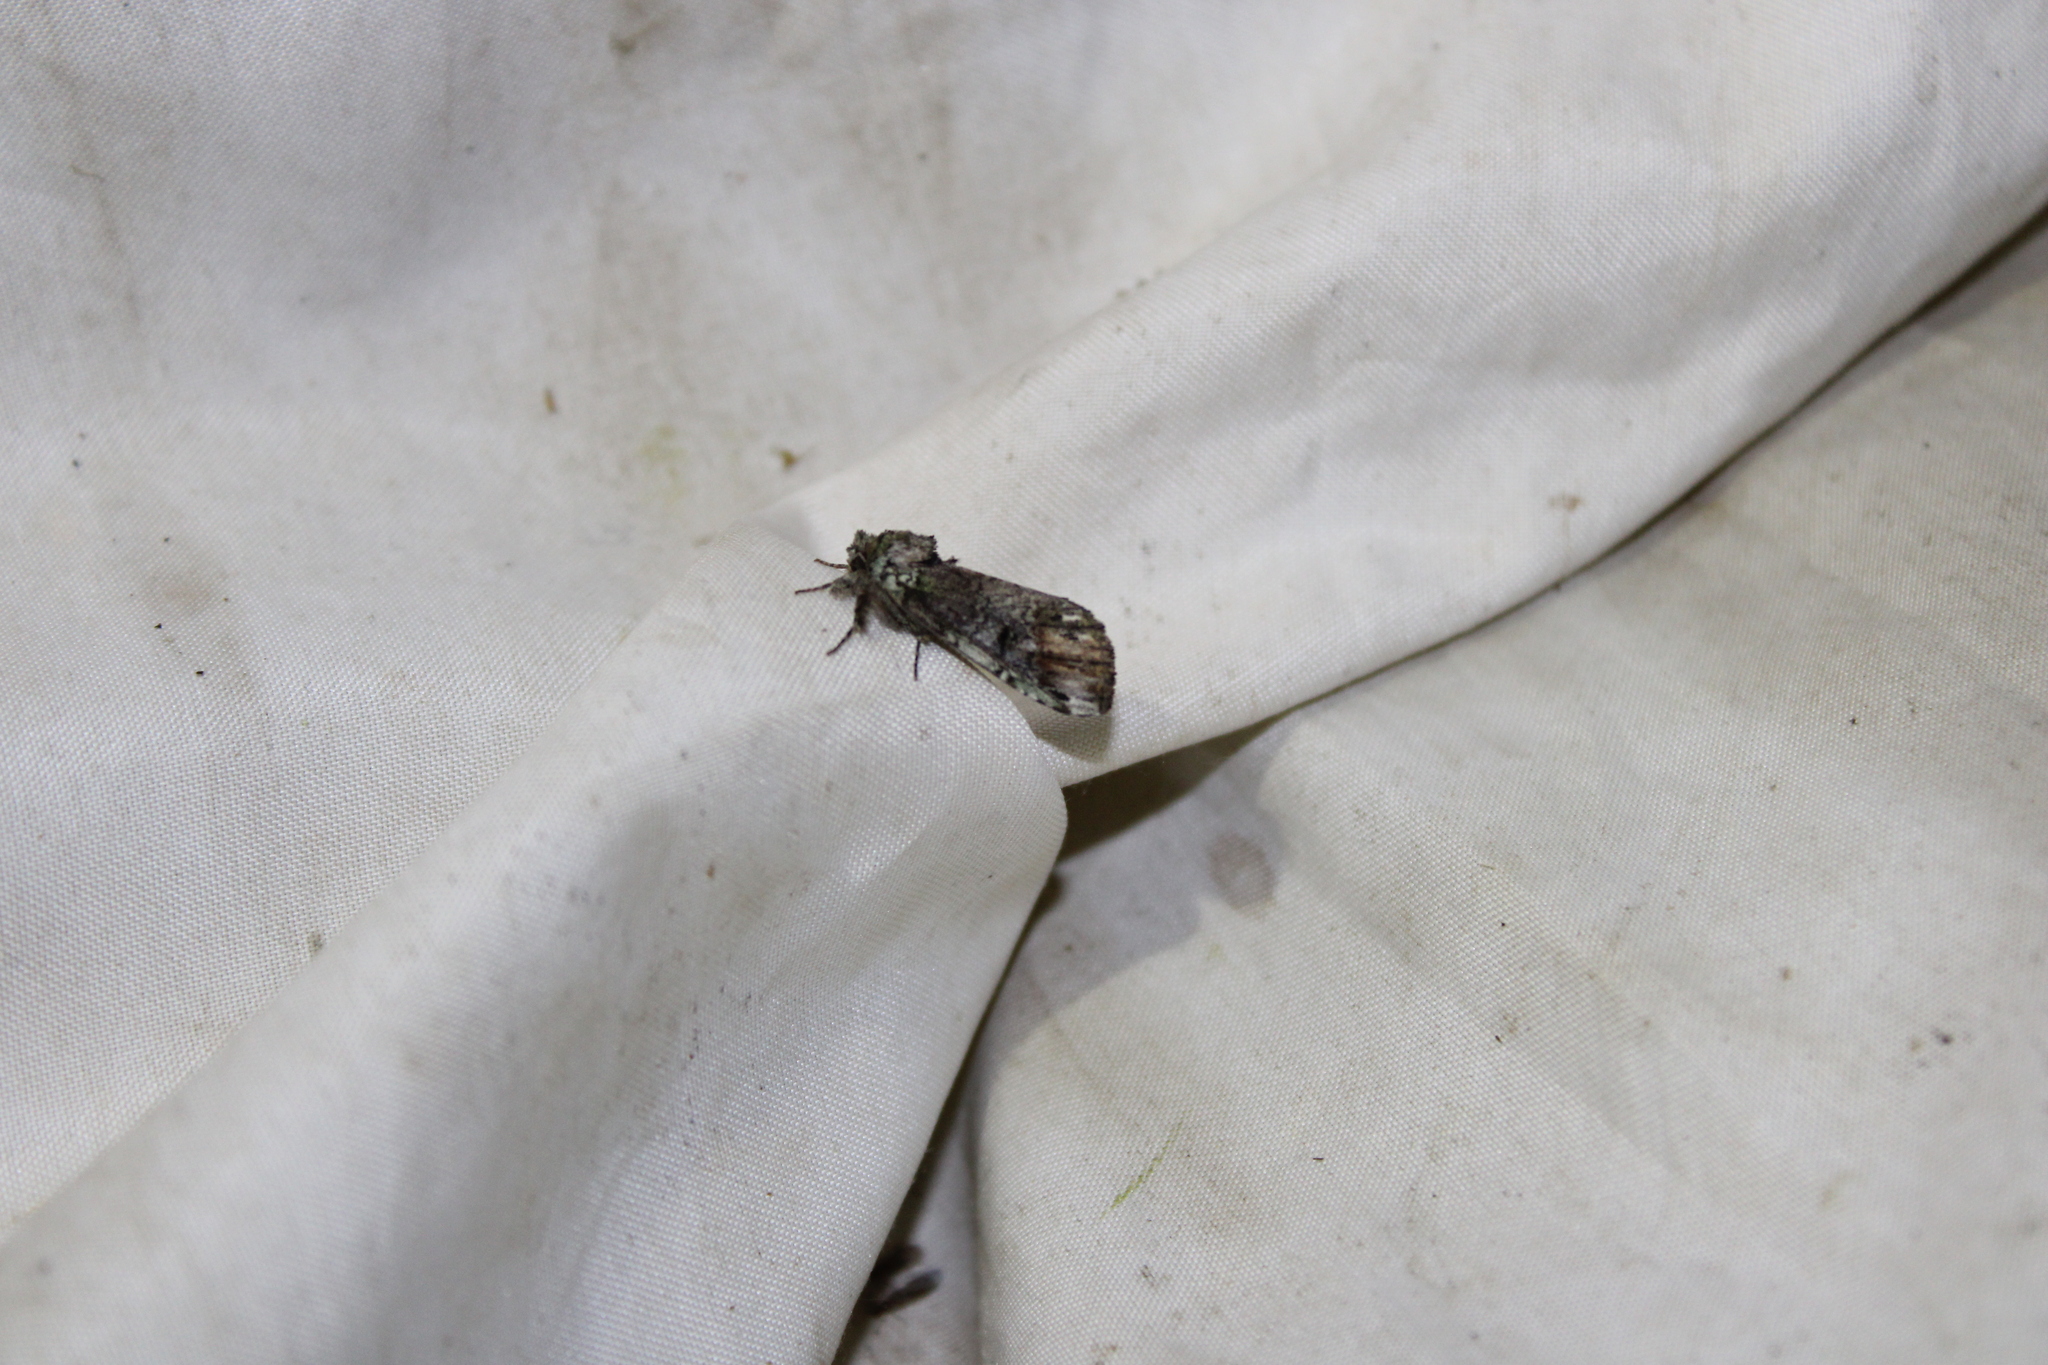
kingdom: Animalia
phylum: Arthropoda
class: Insecta
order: Lepidoptera
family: Notodontidae
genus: Schizura
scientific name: Schizura
